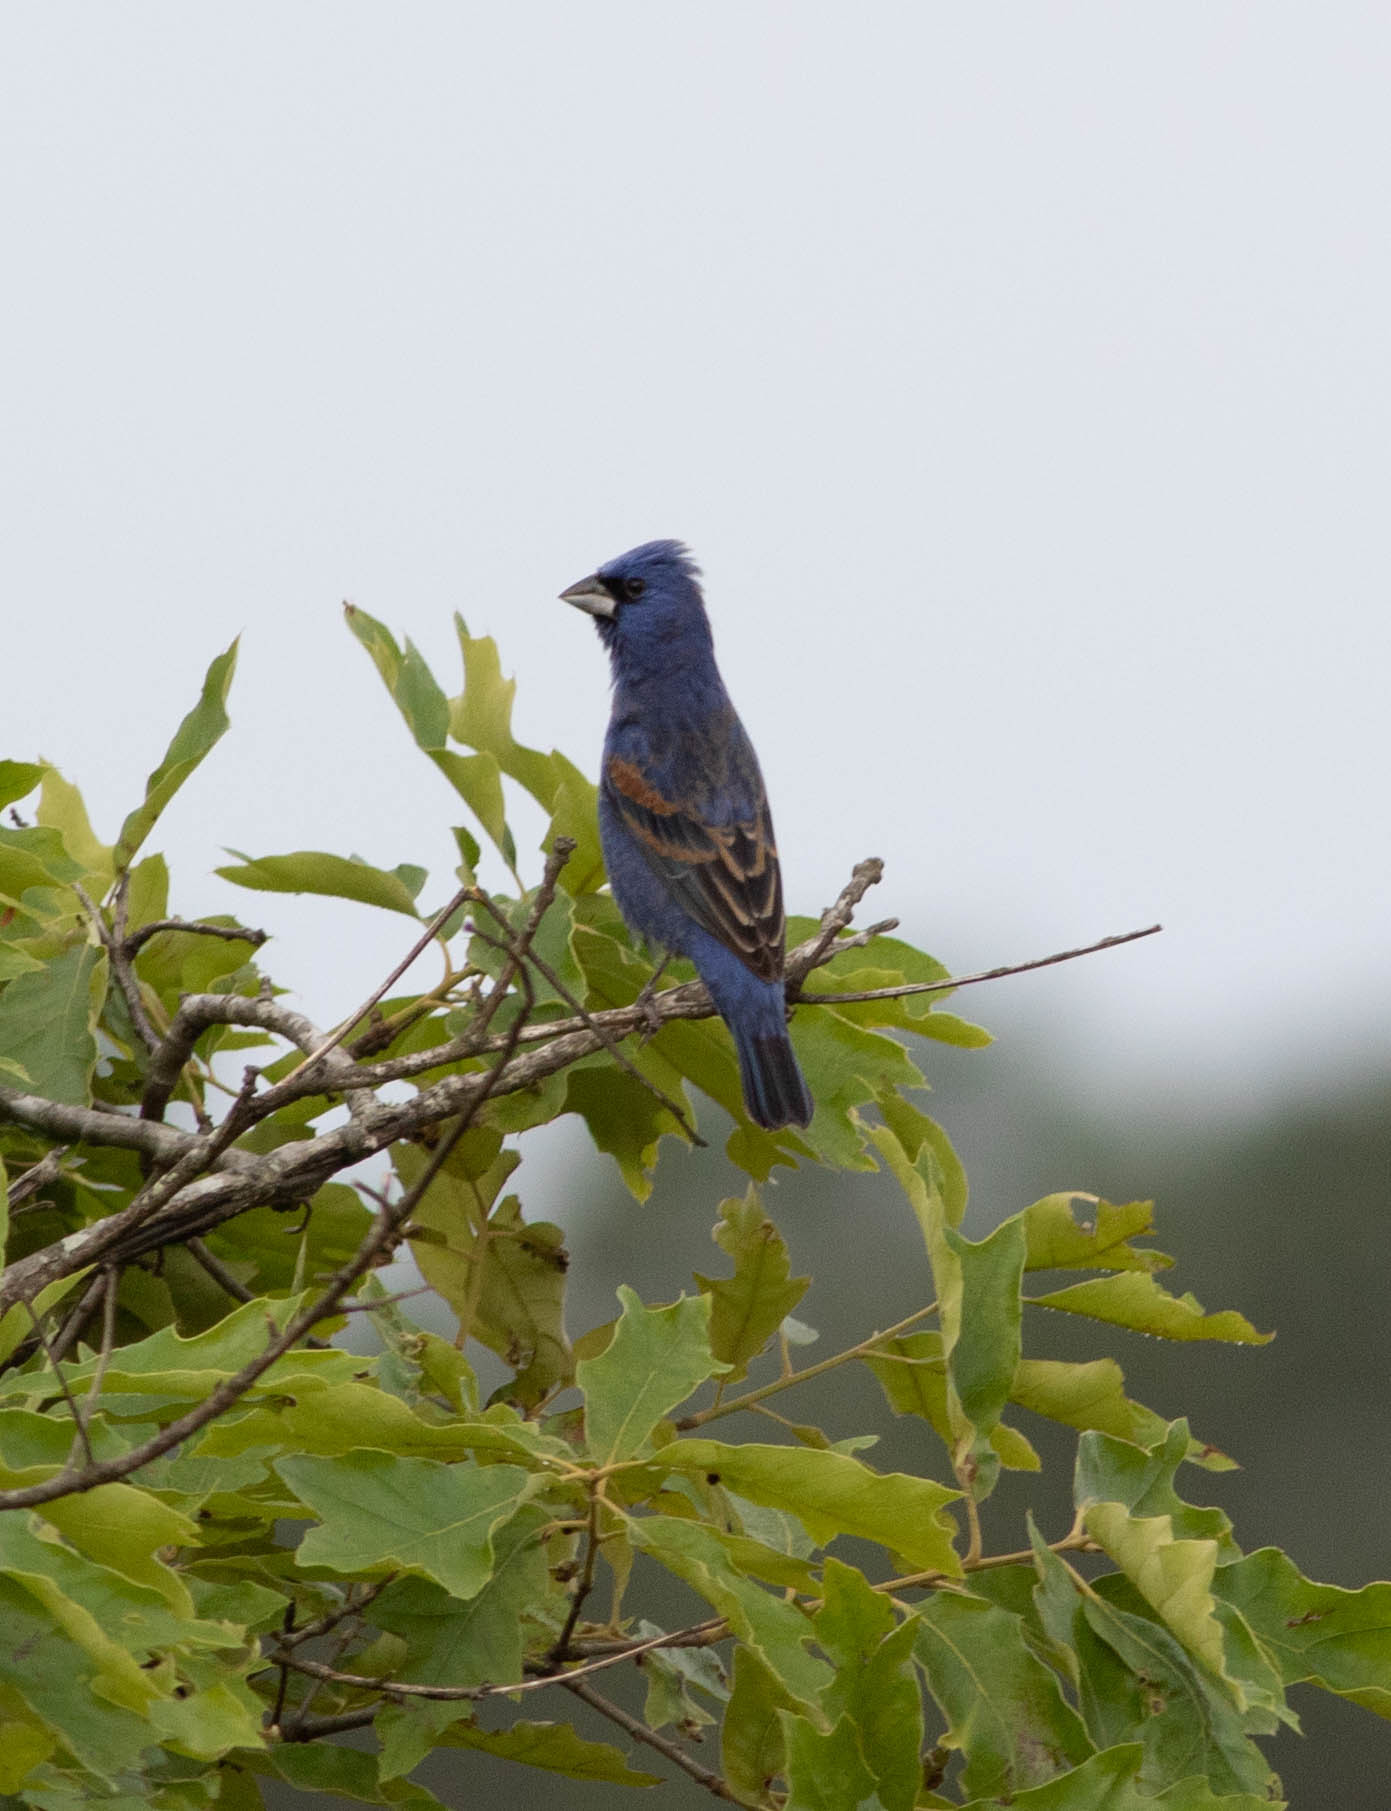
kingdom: Animalia
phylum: Chordata
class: Aves
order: Passeriformes
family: Cardinalidae
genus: Passerina
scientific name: Passerina caerulea
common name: Blue grosbeak
